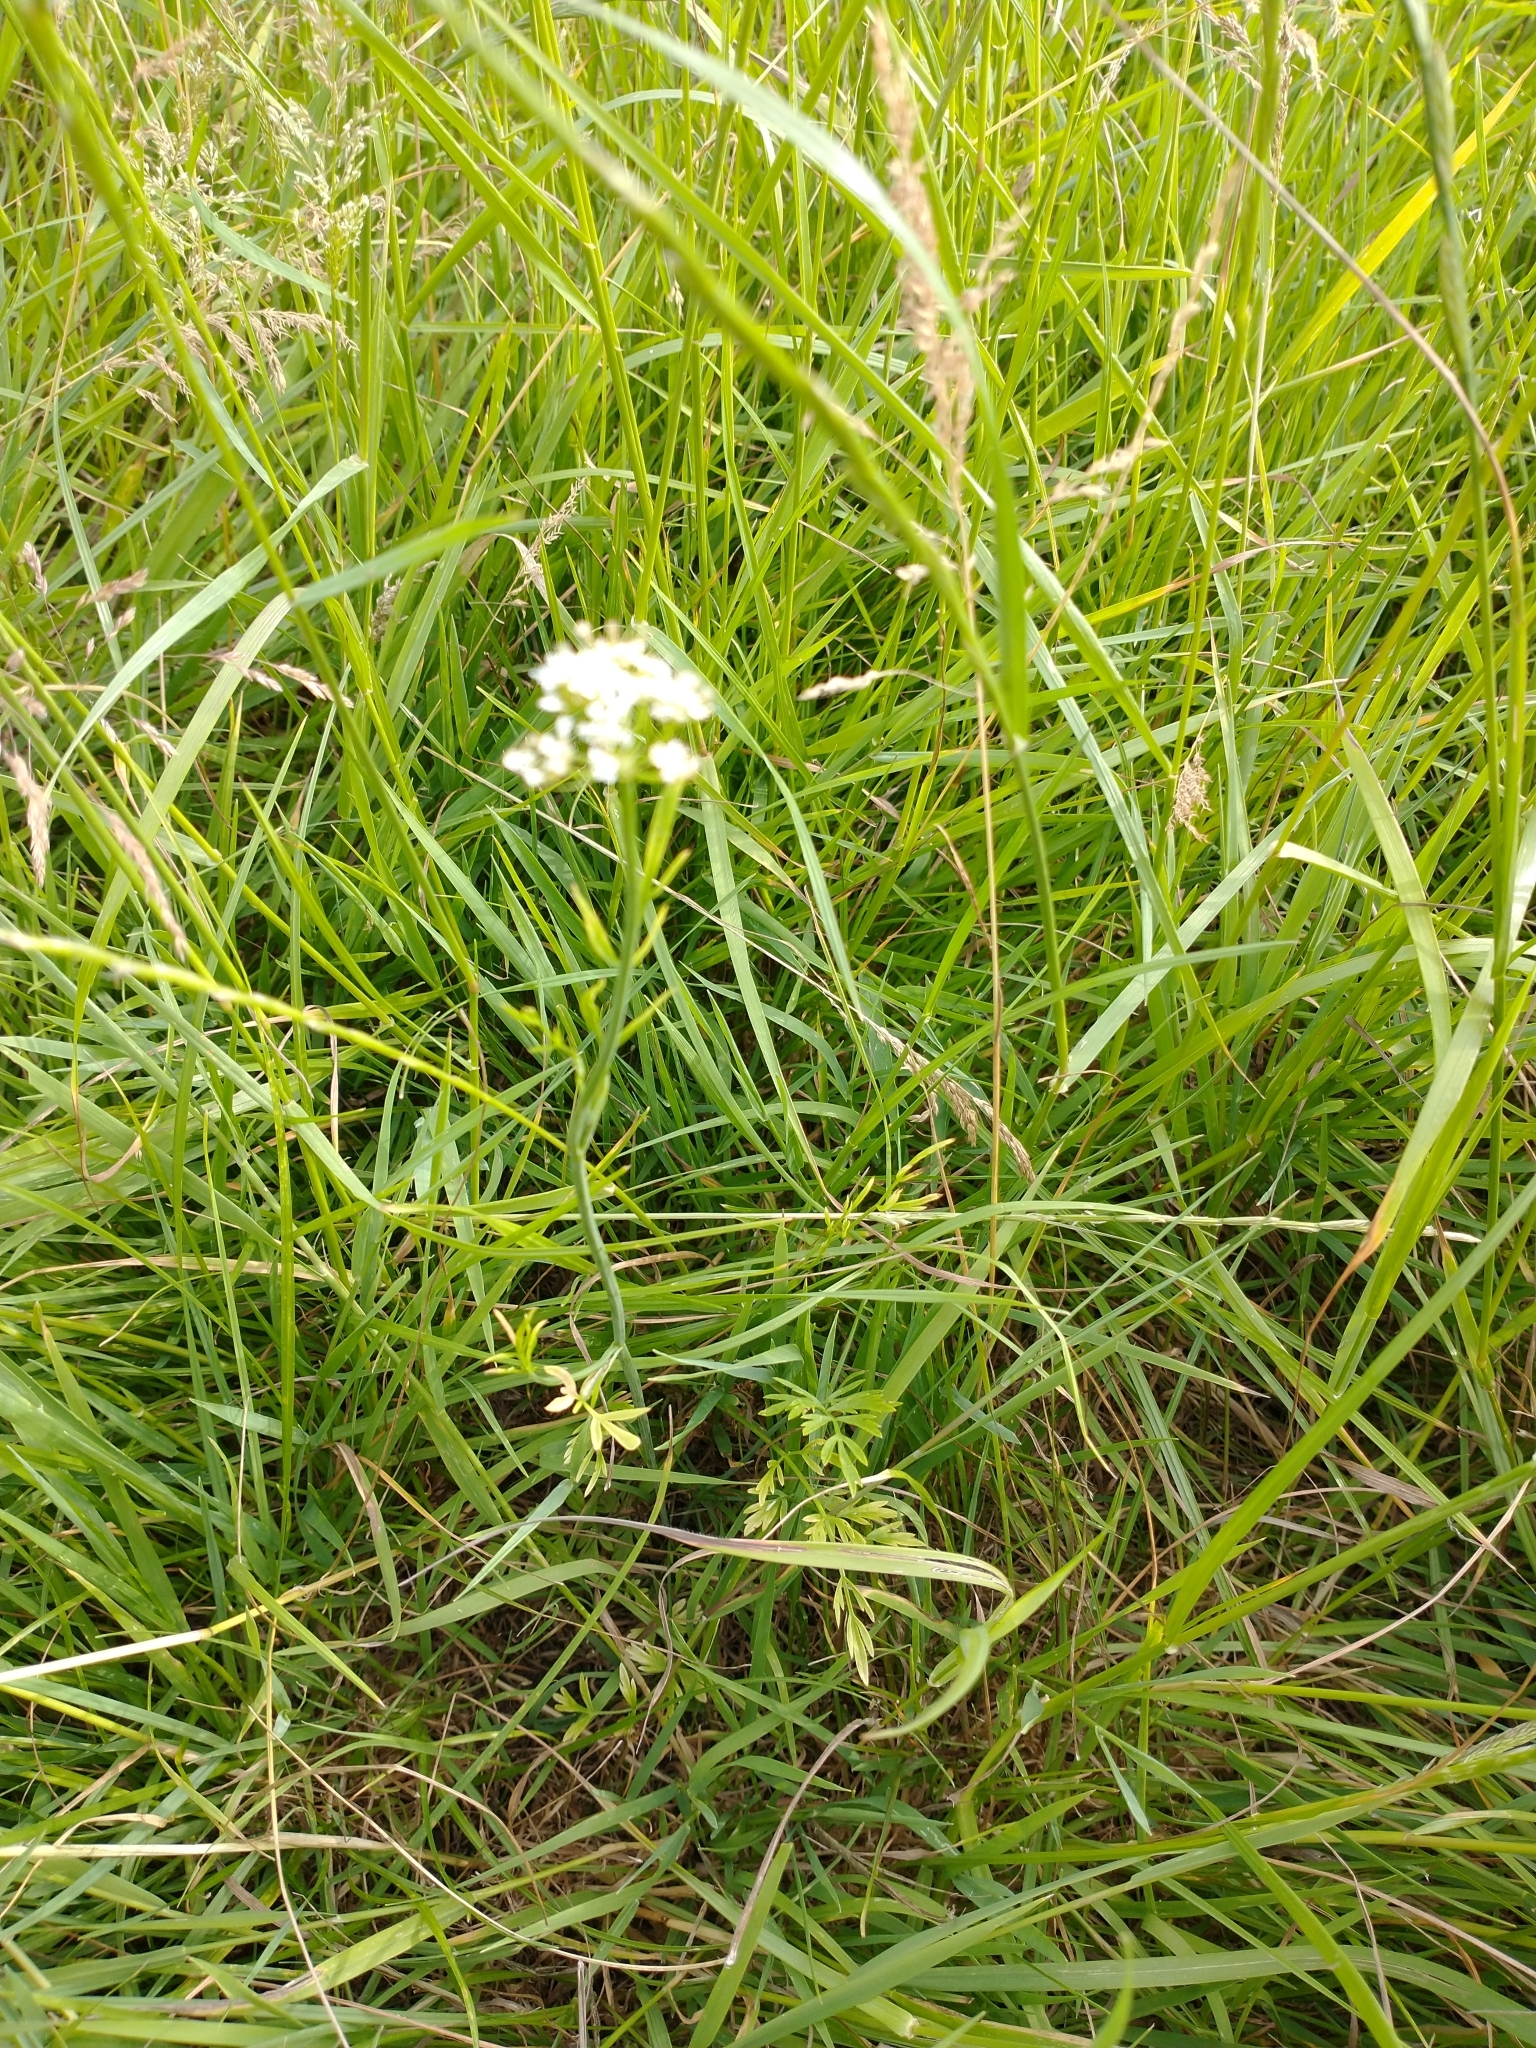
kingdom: Plantae
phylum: Tracheophyta
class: Magnoliopsida
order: Apiales
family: Apiaceae
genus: Oenanthe
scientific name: Oenanthe pimpinelloides
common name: Corky-fruited water-dropwort
